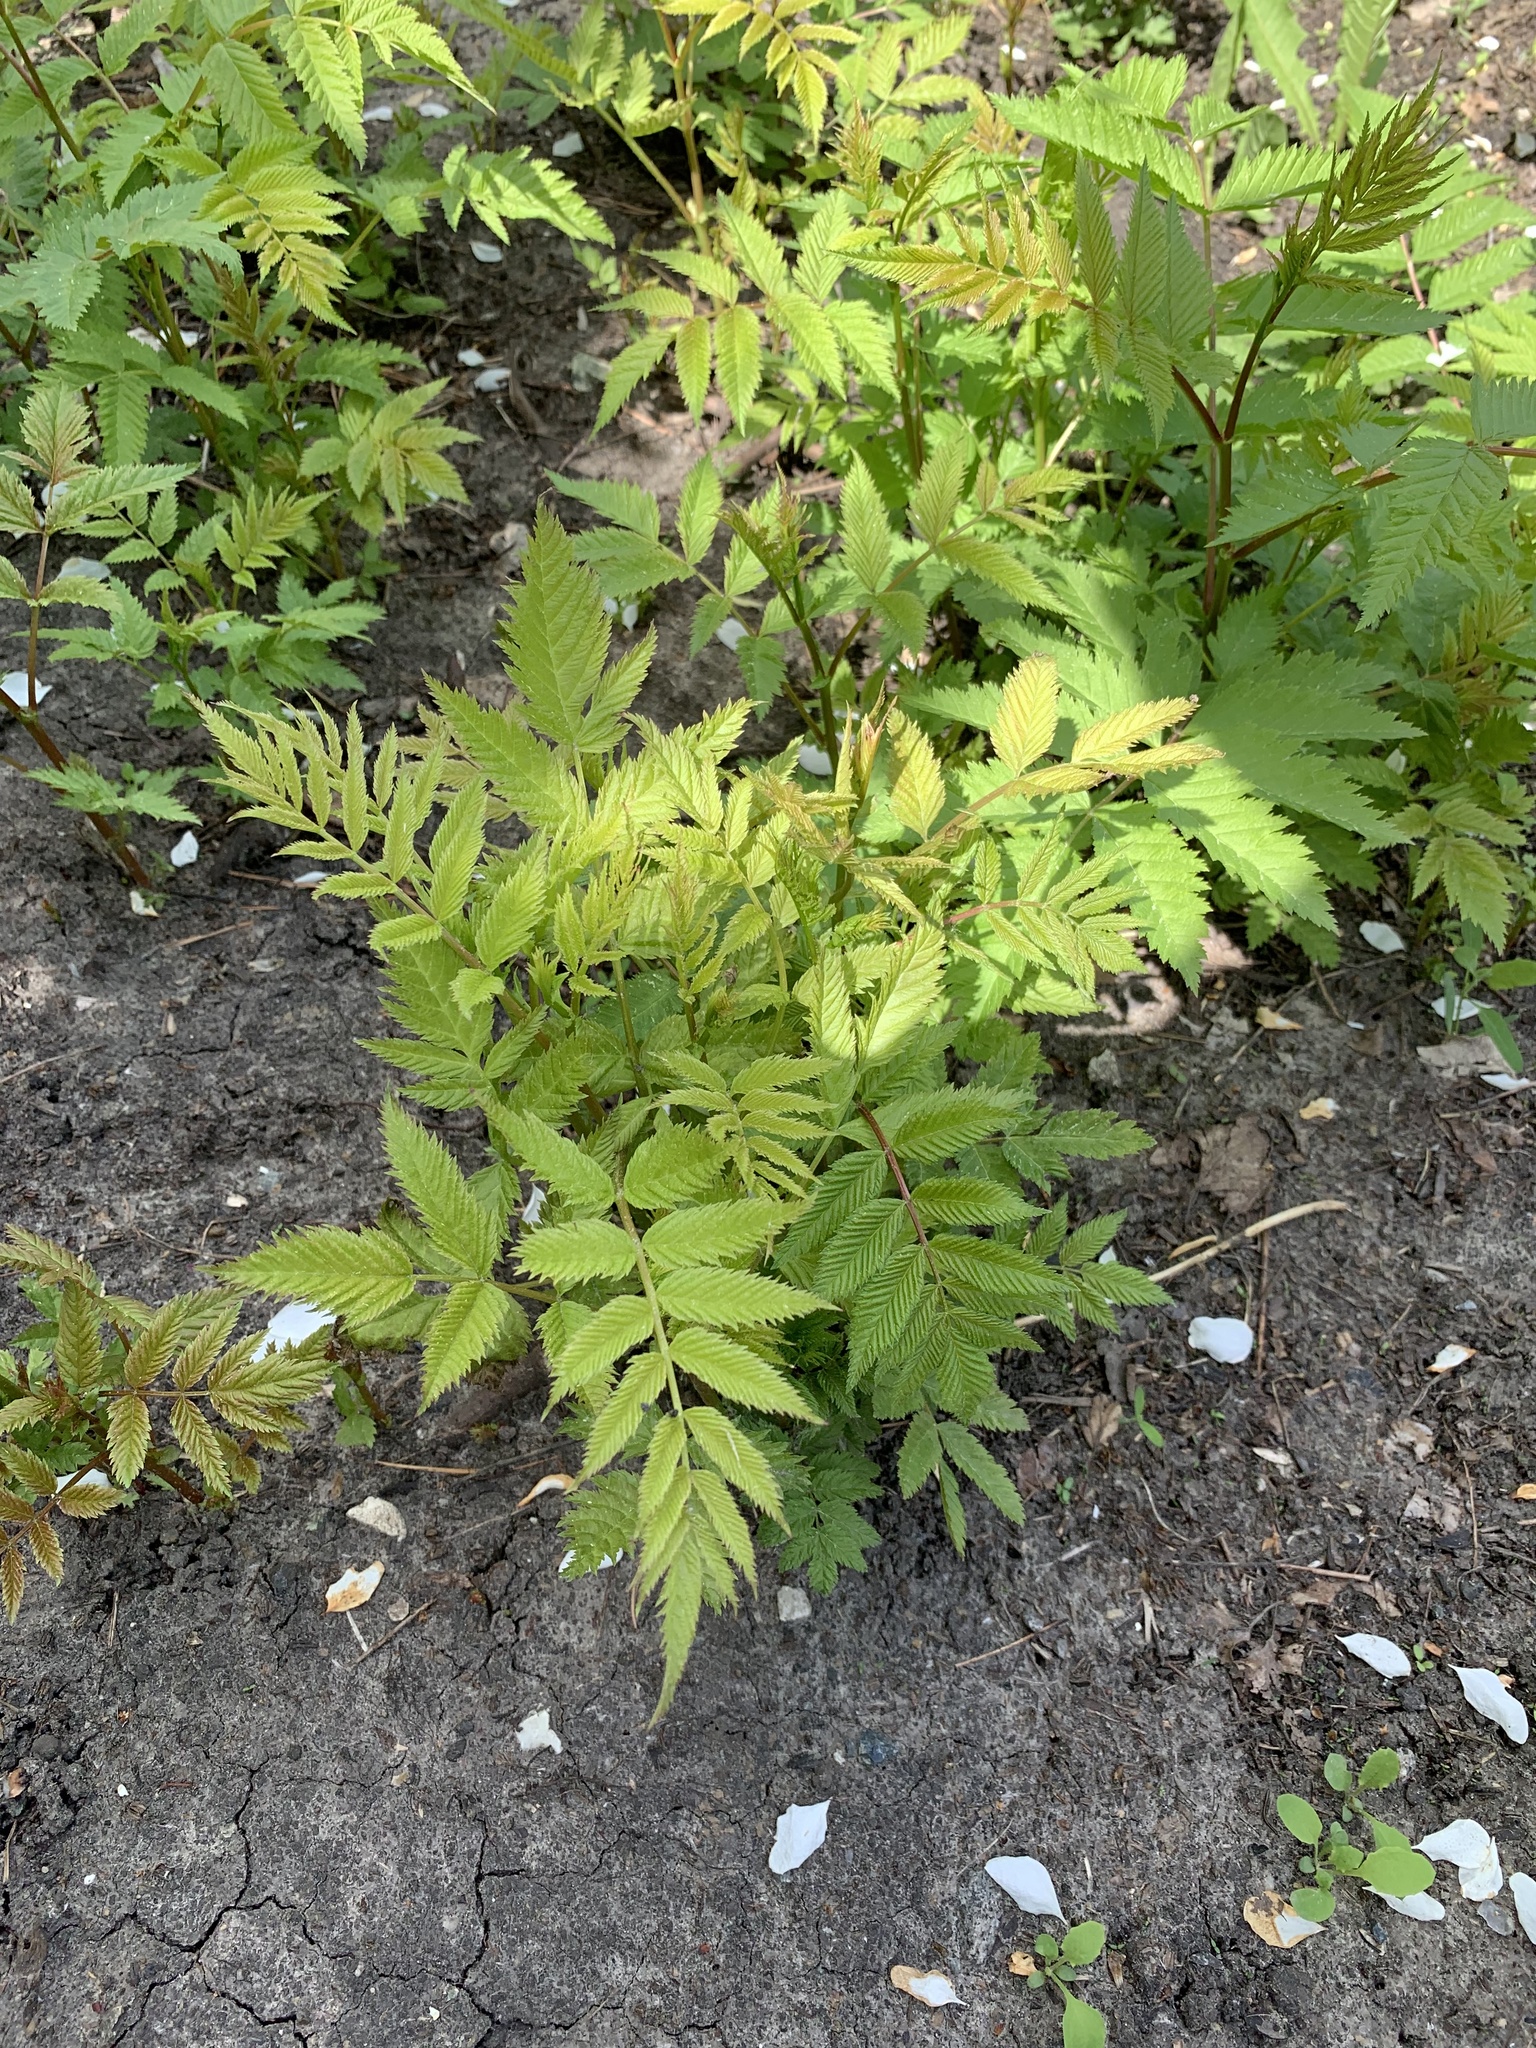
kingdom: Plantae
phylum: Tracheophyta
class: Magnoliopsida
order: Rosales
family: Rosaceae
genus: Sorbaria
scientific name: Sorbaria sorbifolia
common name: False spiraea
